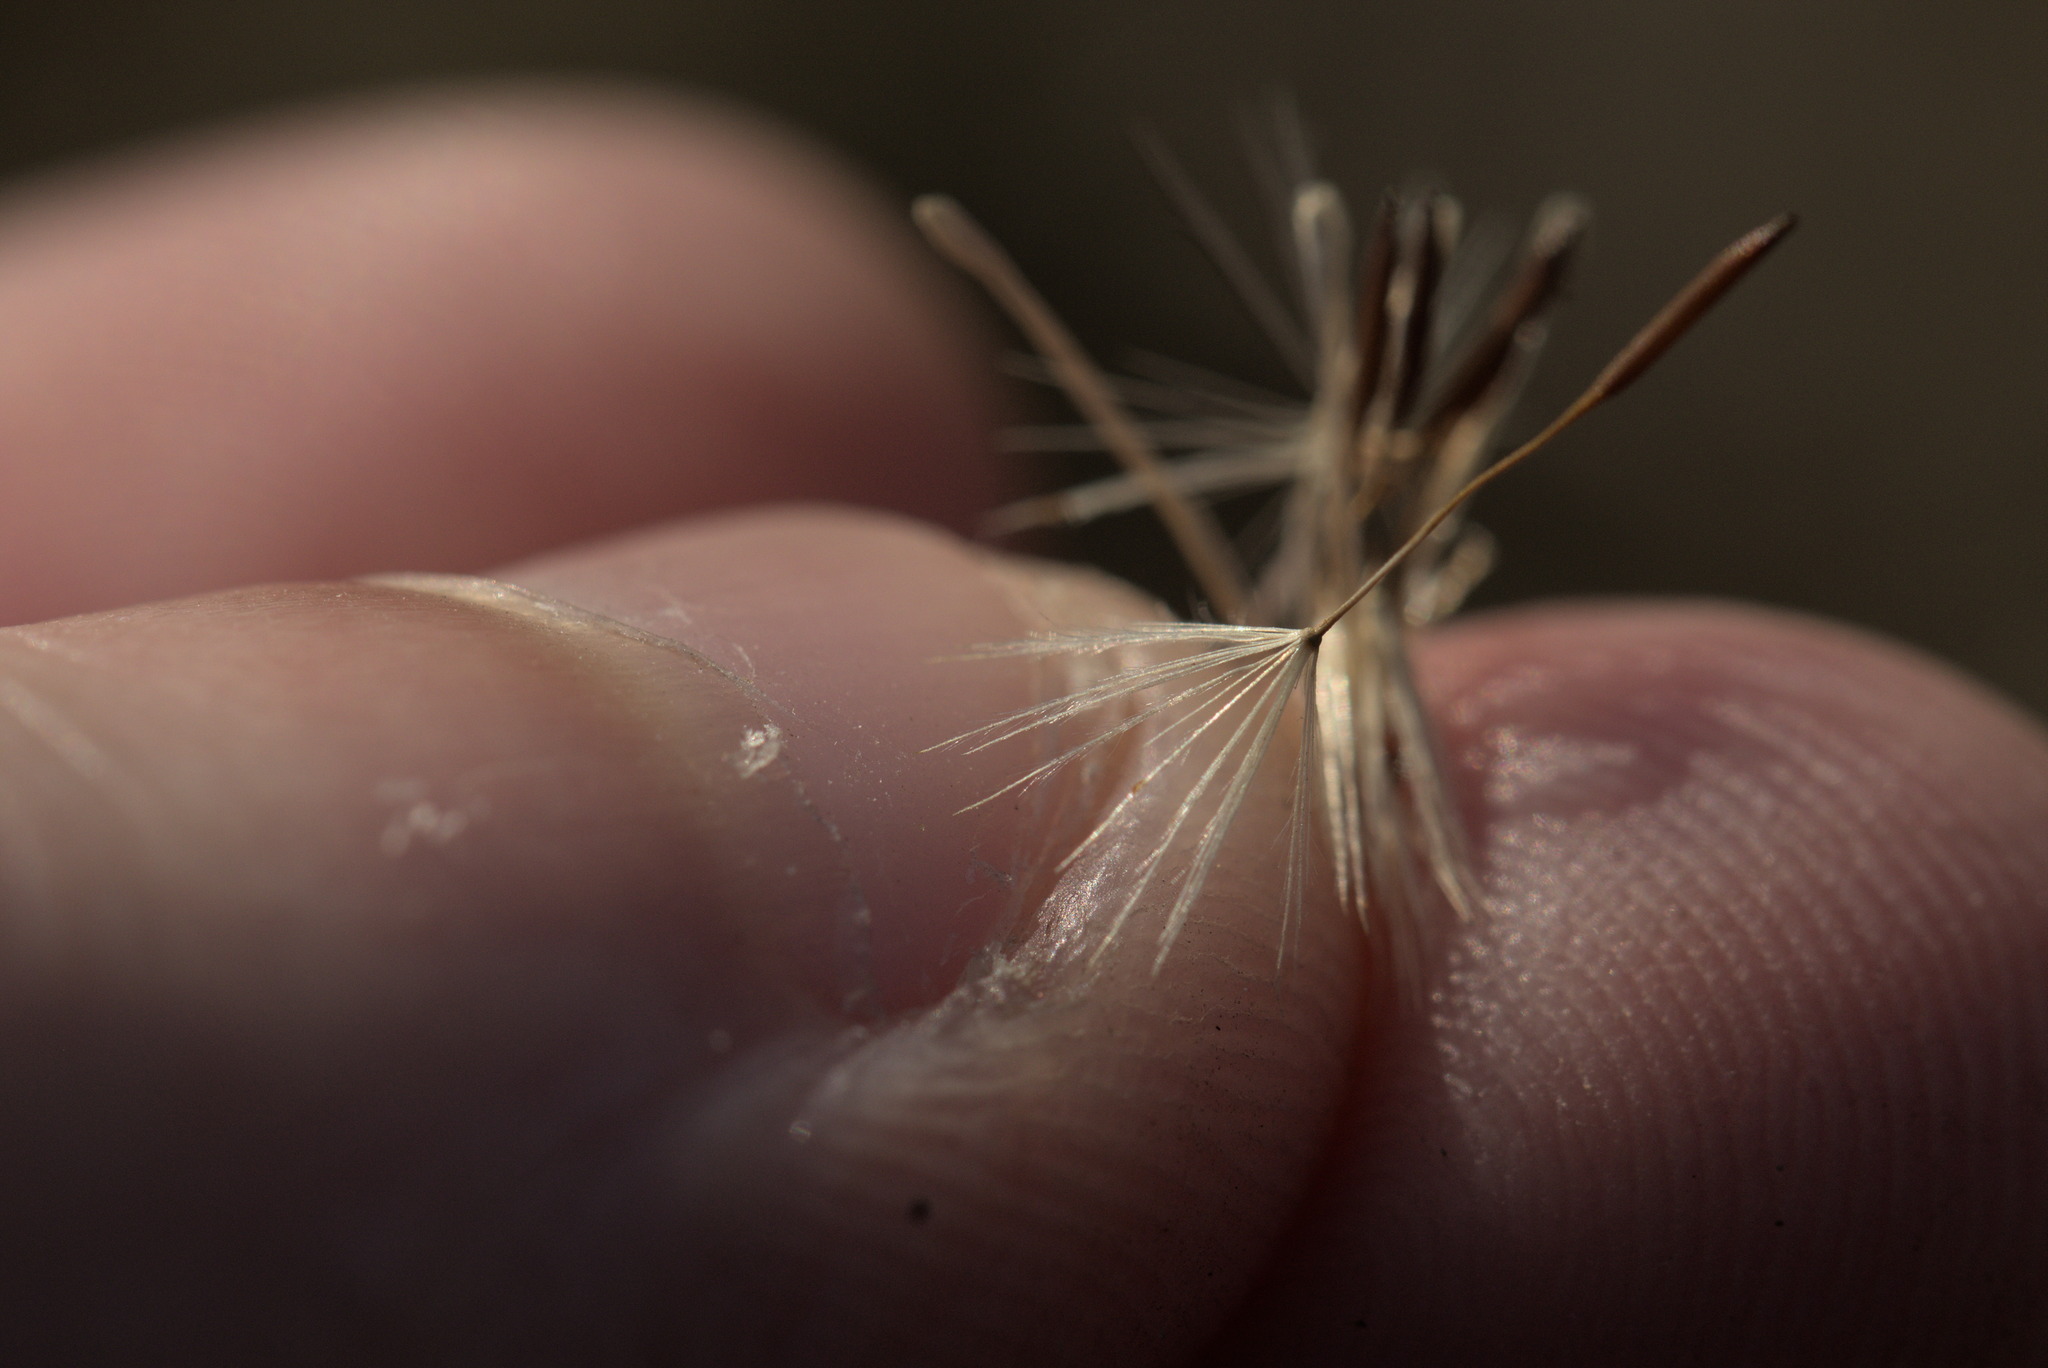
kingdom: Plantae
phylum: Tracheophyta
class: Magnoliopsida
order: Asterales
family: Asteraceae
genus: Hypochaeris
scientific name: Hypochaeris radicata
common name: Flatweed
